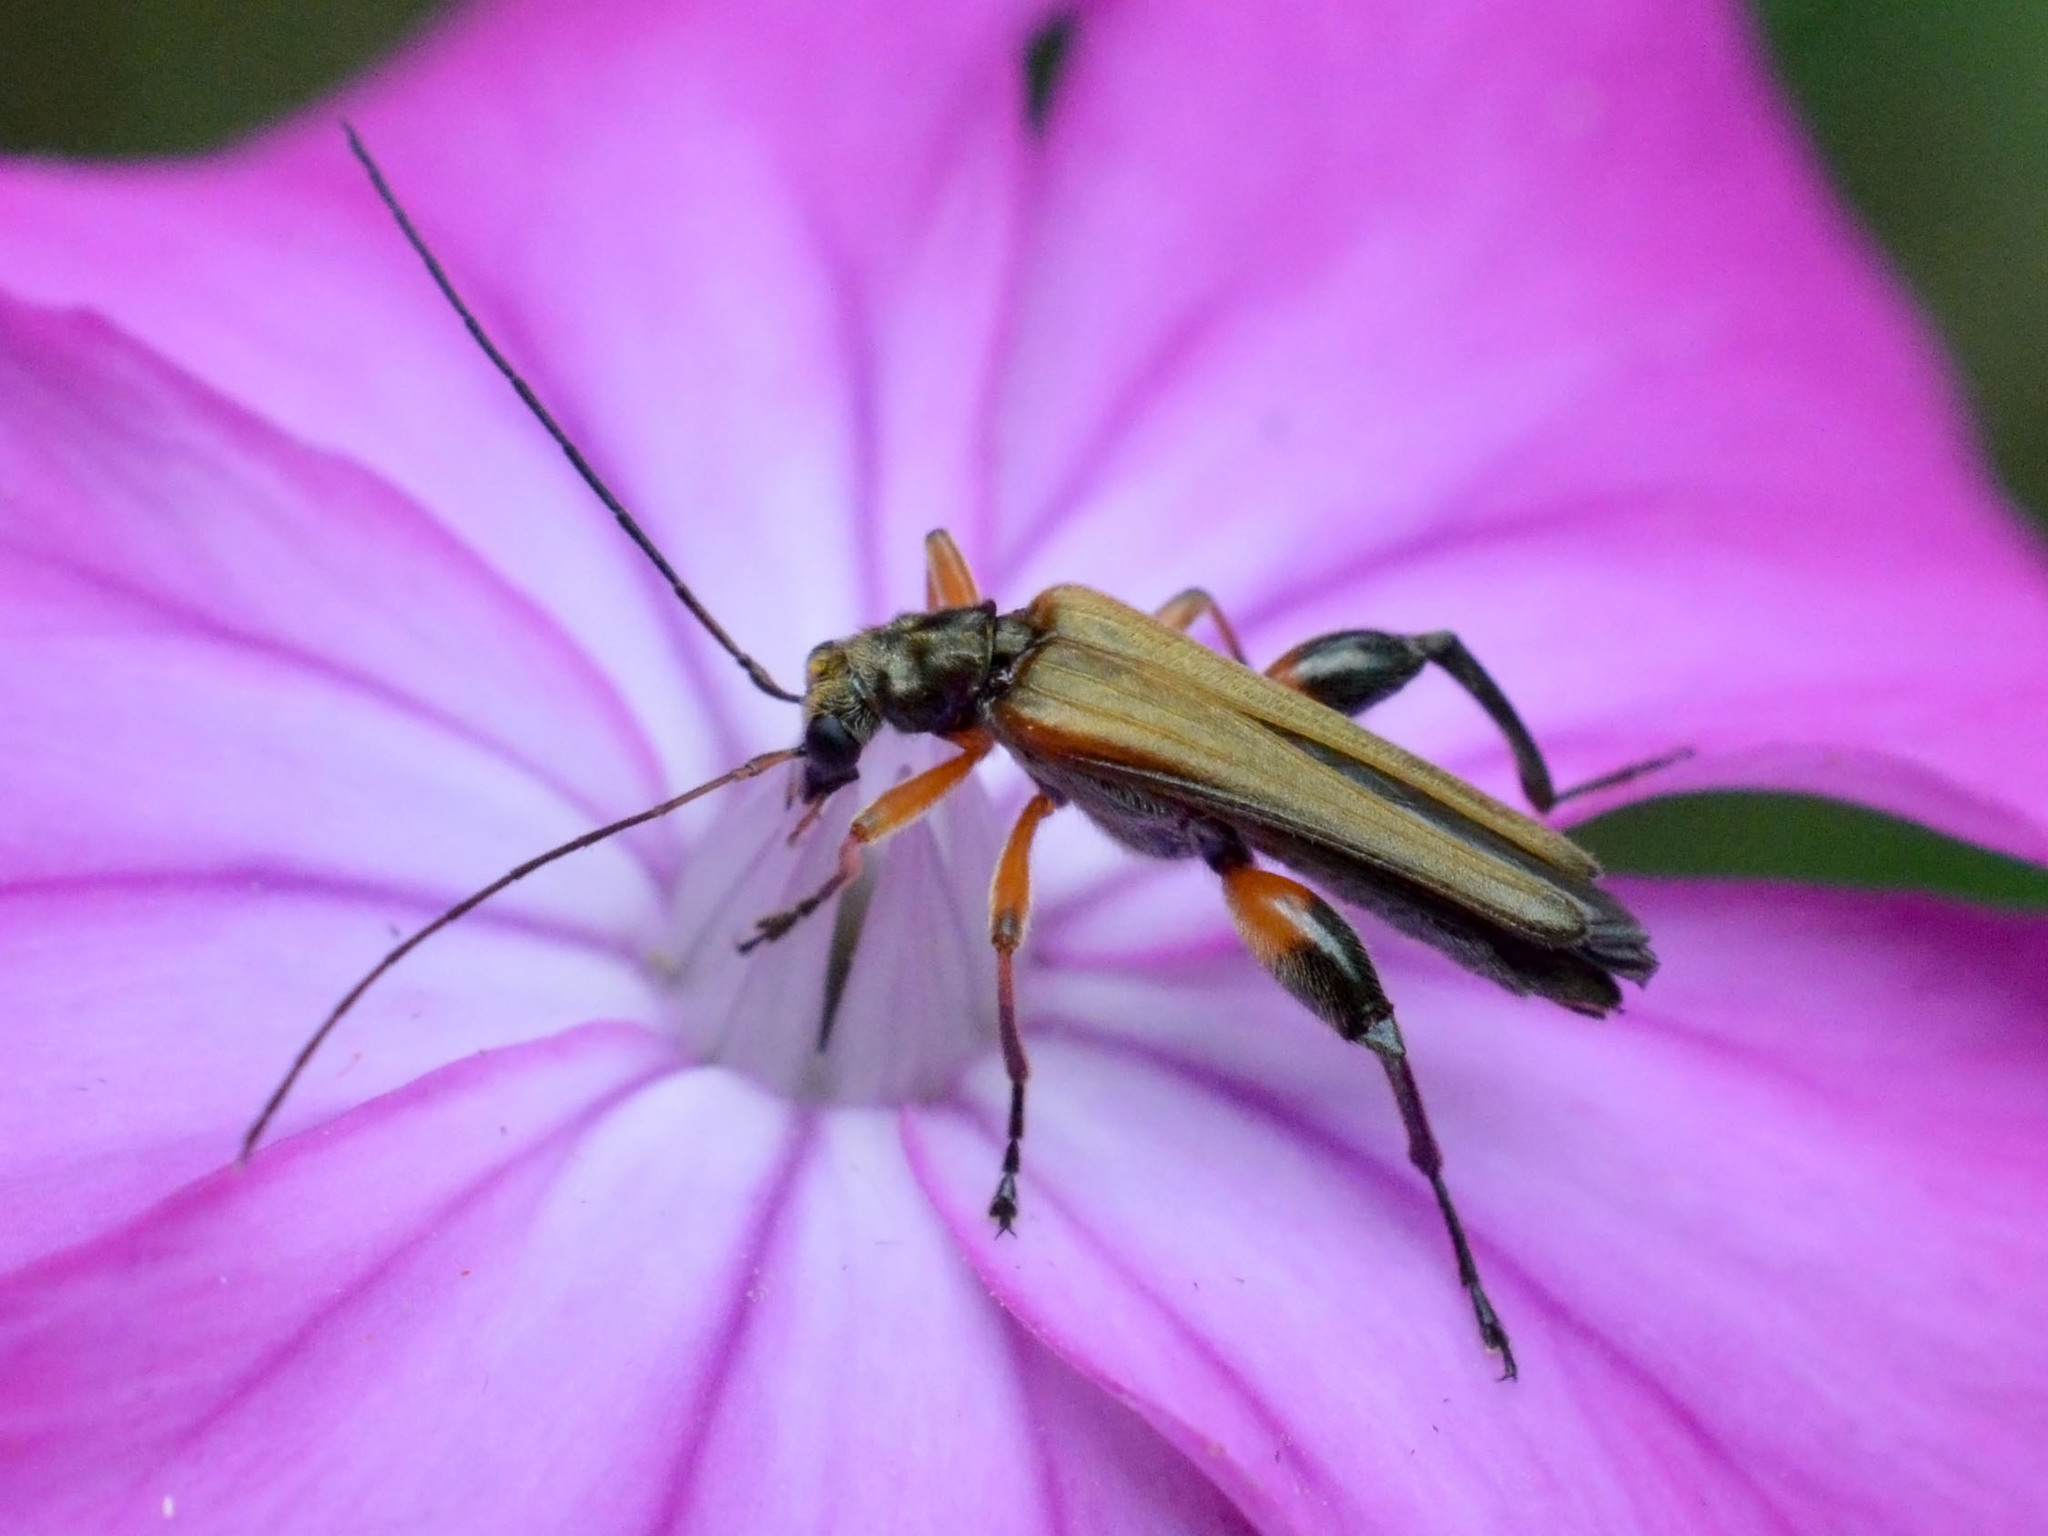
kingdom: Animalia
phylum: Arthropoda
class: Insecta
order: Coleoptera
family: Oedemeridae
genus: Oedemera
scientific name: Oedemera podagrariae
